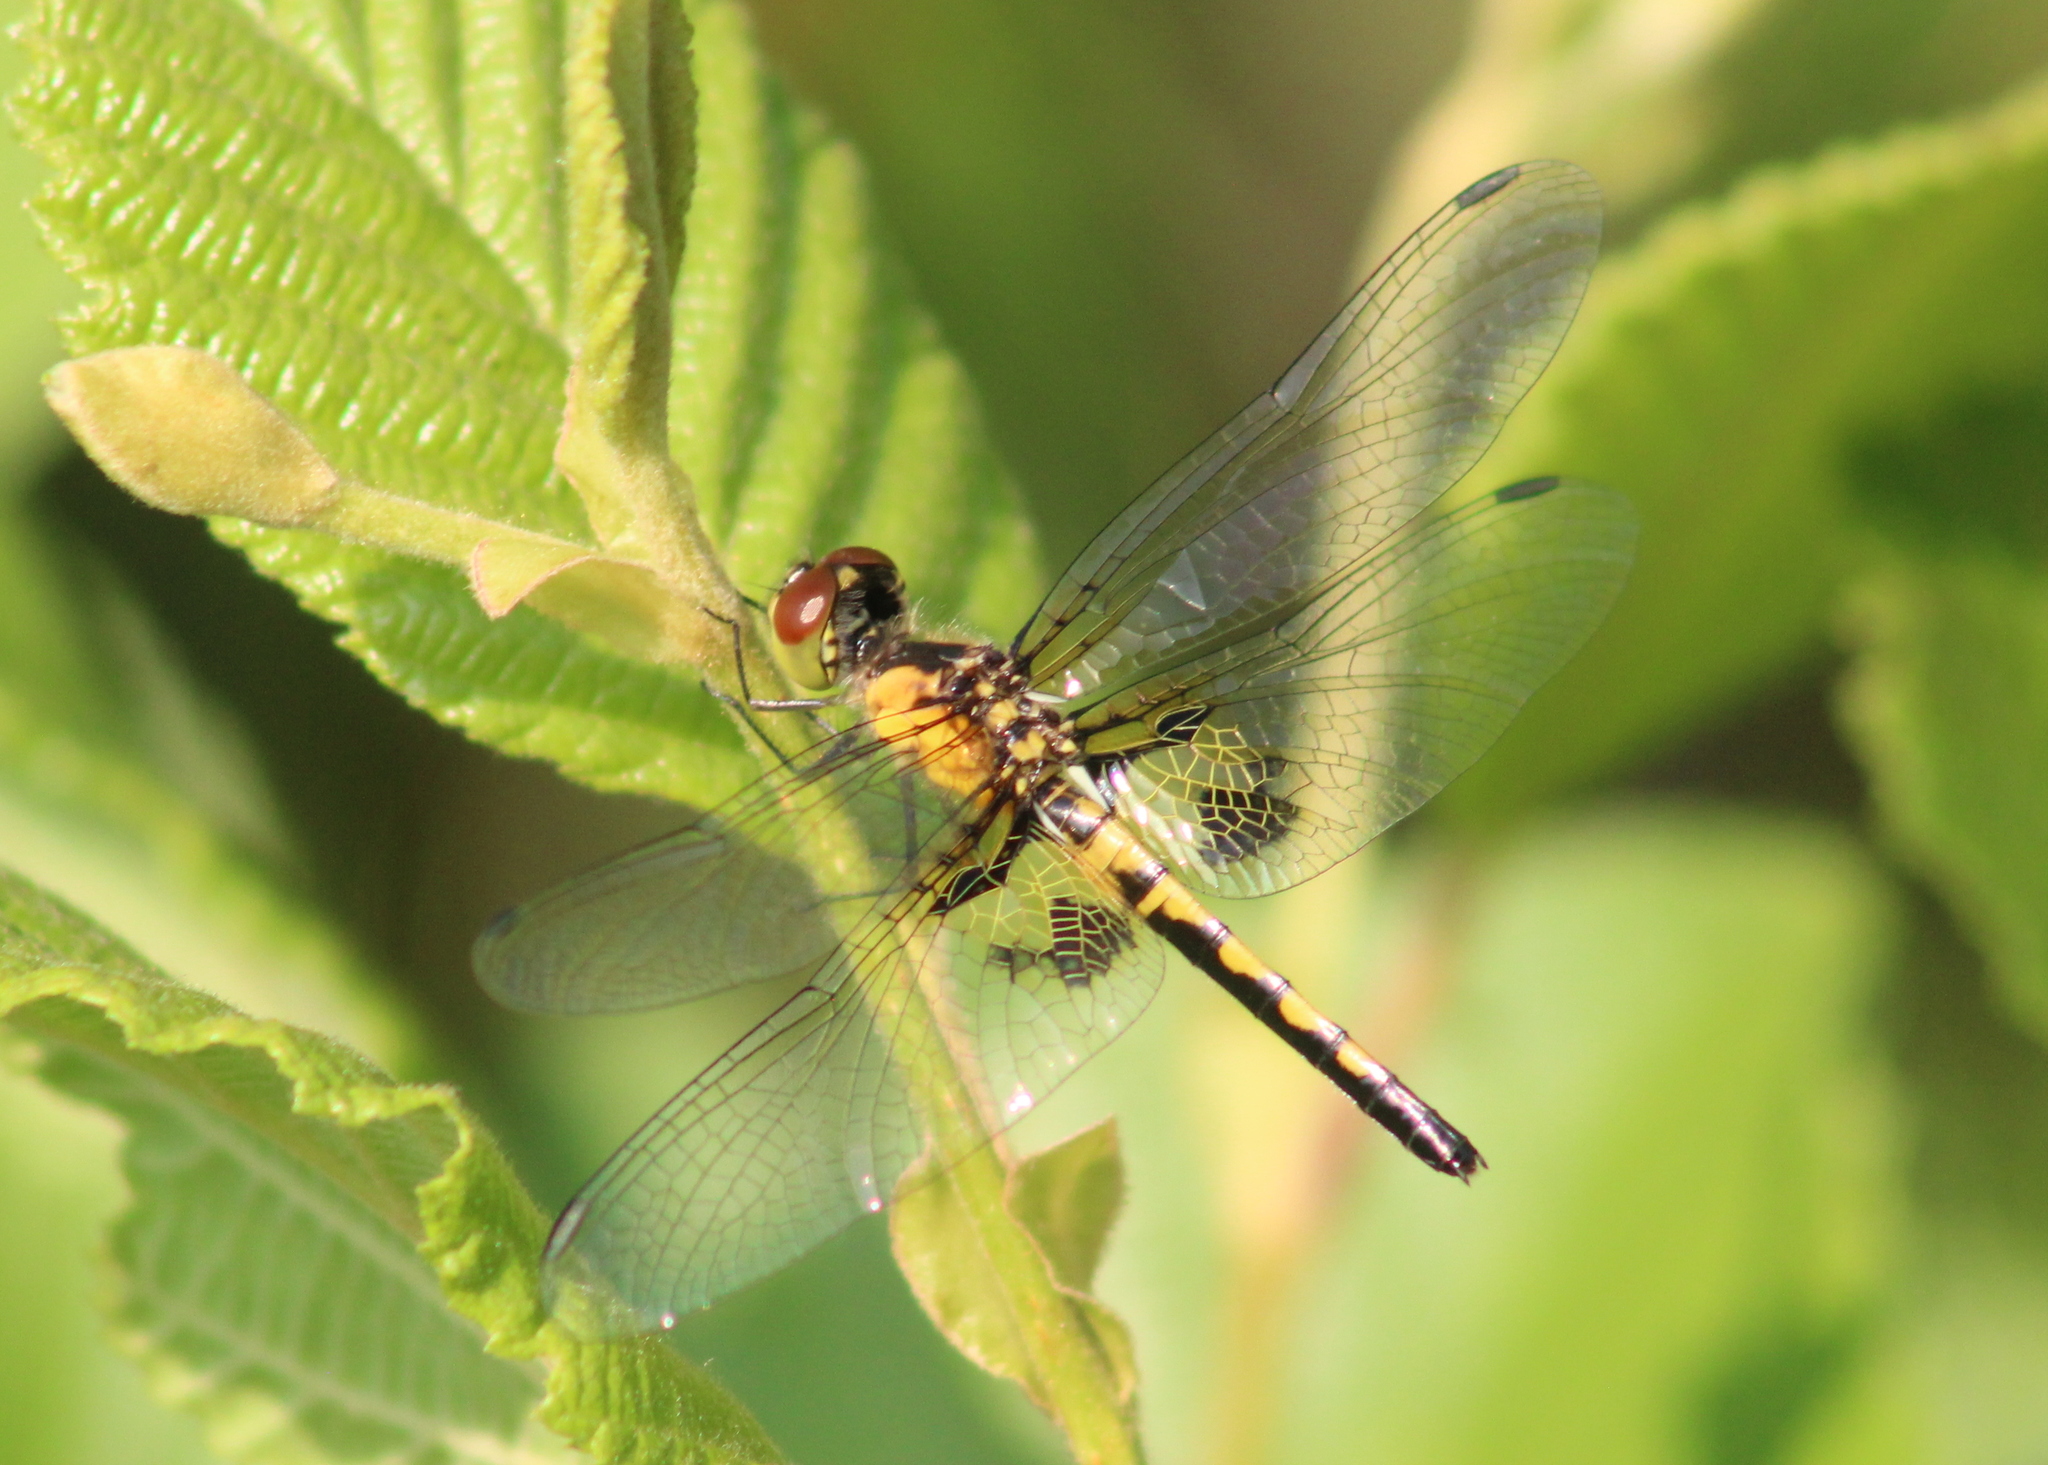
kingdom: Animalia
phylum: Arthropoda
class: Insecta
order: Odonata
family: Libellulidae
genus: Celithemis
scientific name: Celithemis martha
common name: Martha's pennant
